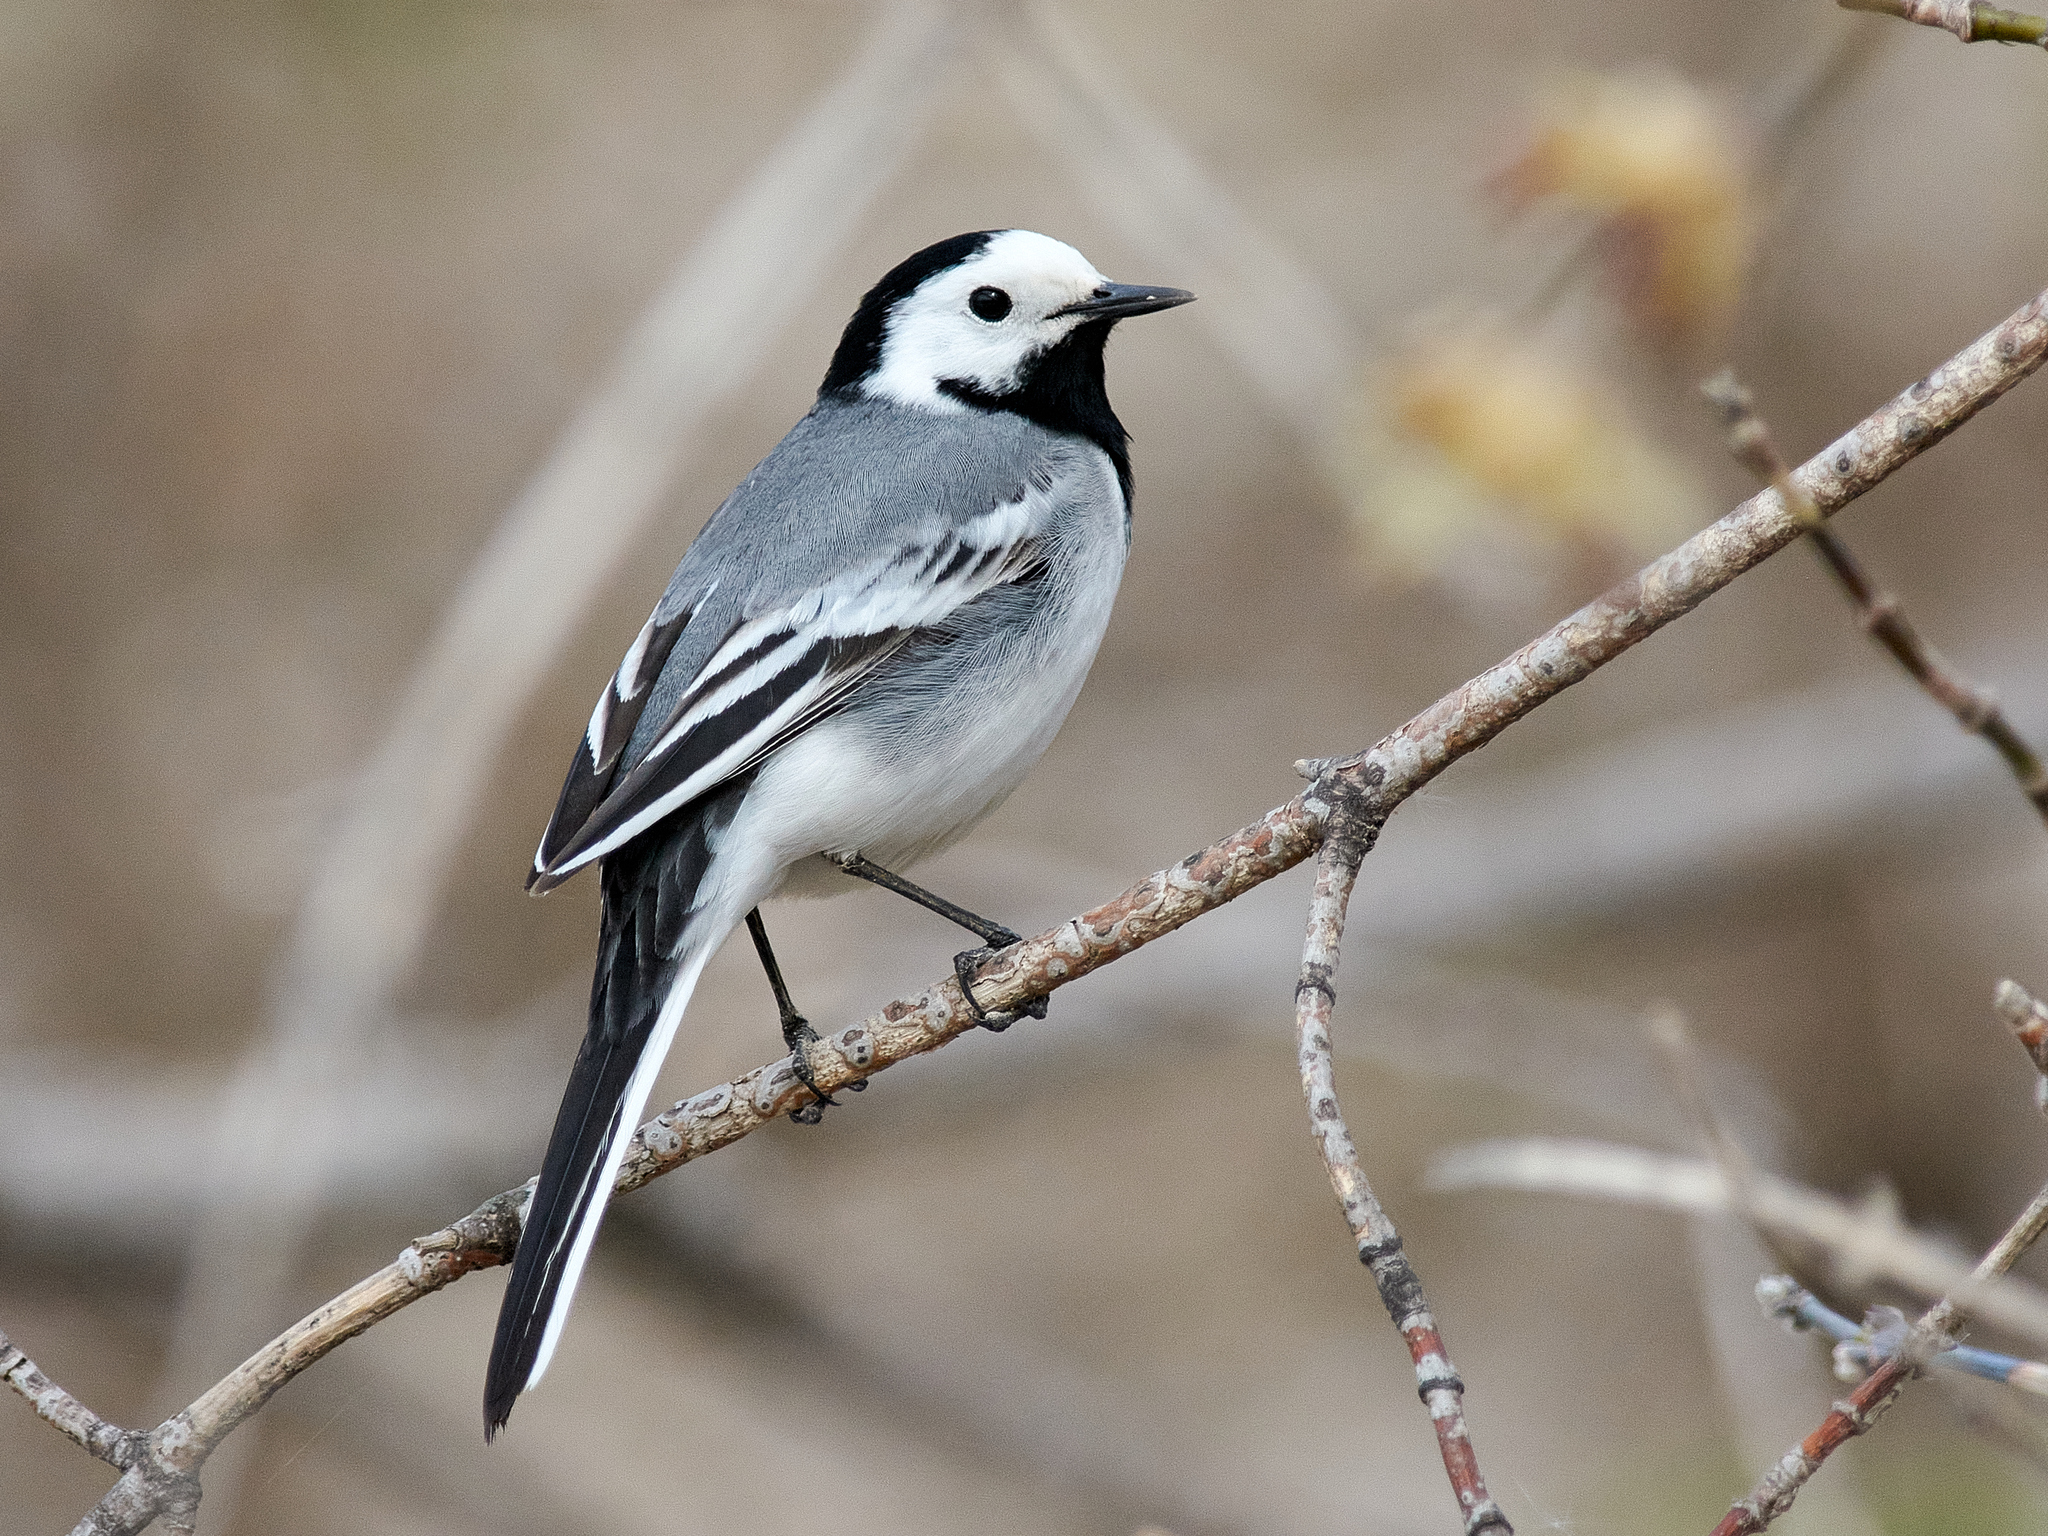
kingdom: Animalia
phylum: Chordata
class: Aves
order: Passeriformes
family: Motacillidae
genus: Motacilla
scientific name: Motacilla alba
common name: White wagtail
